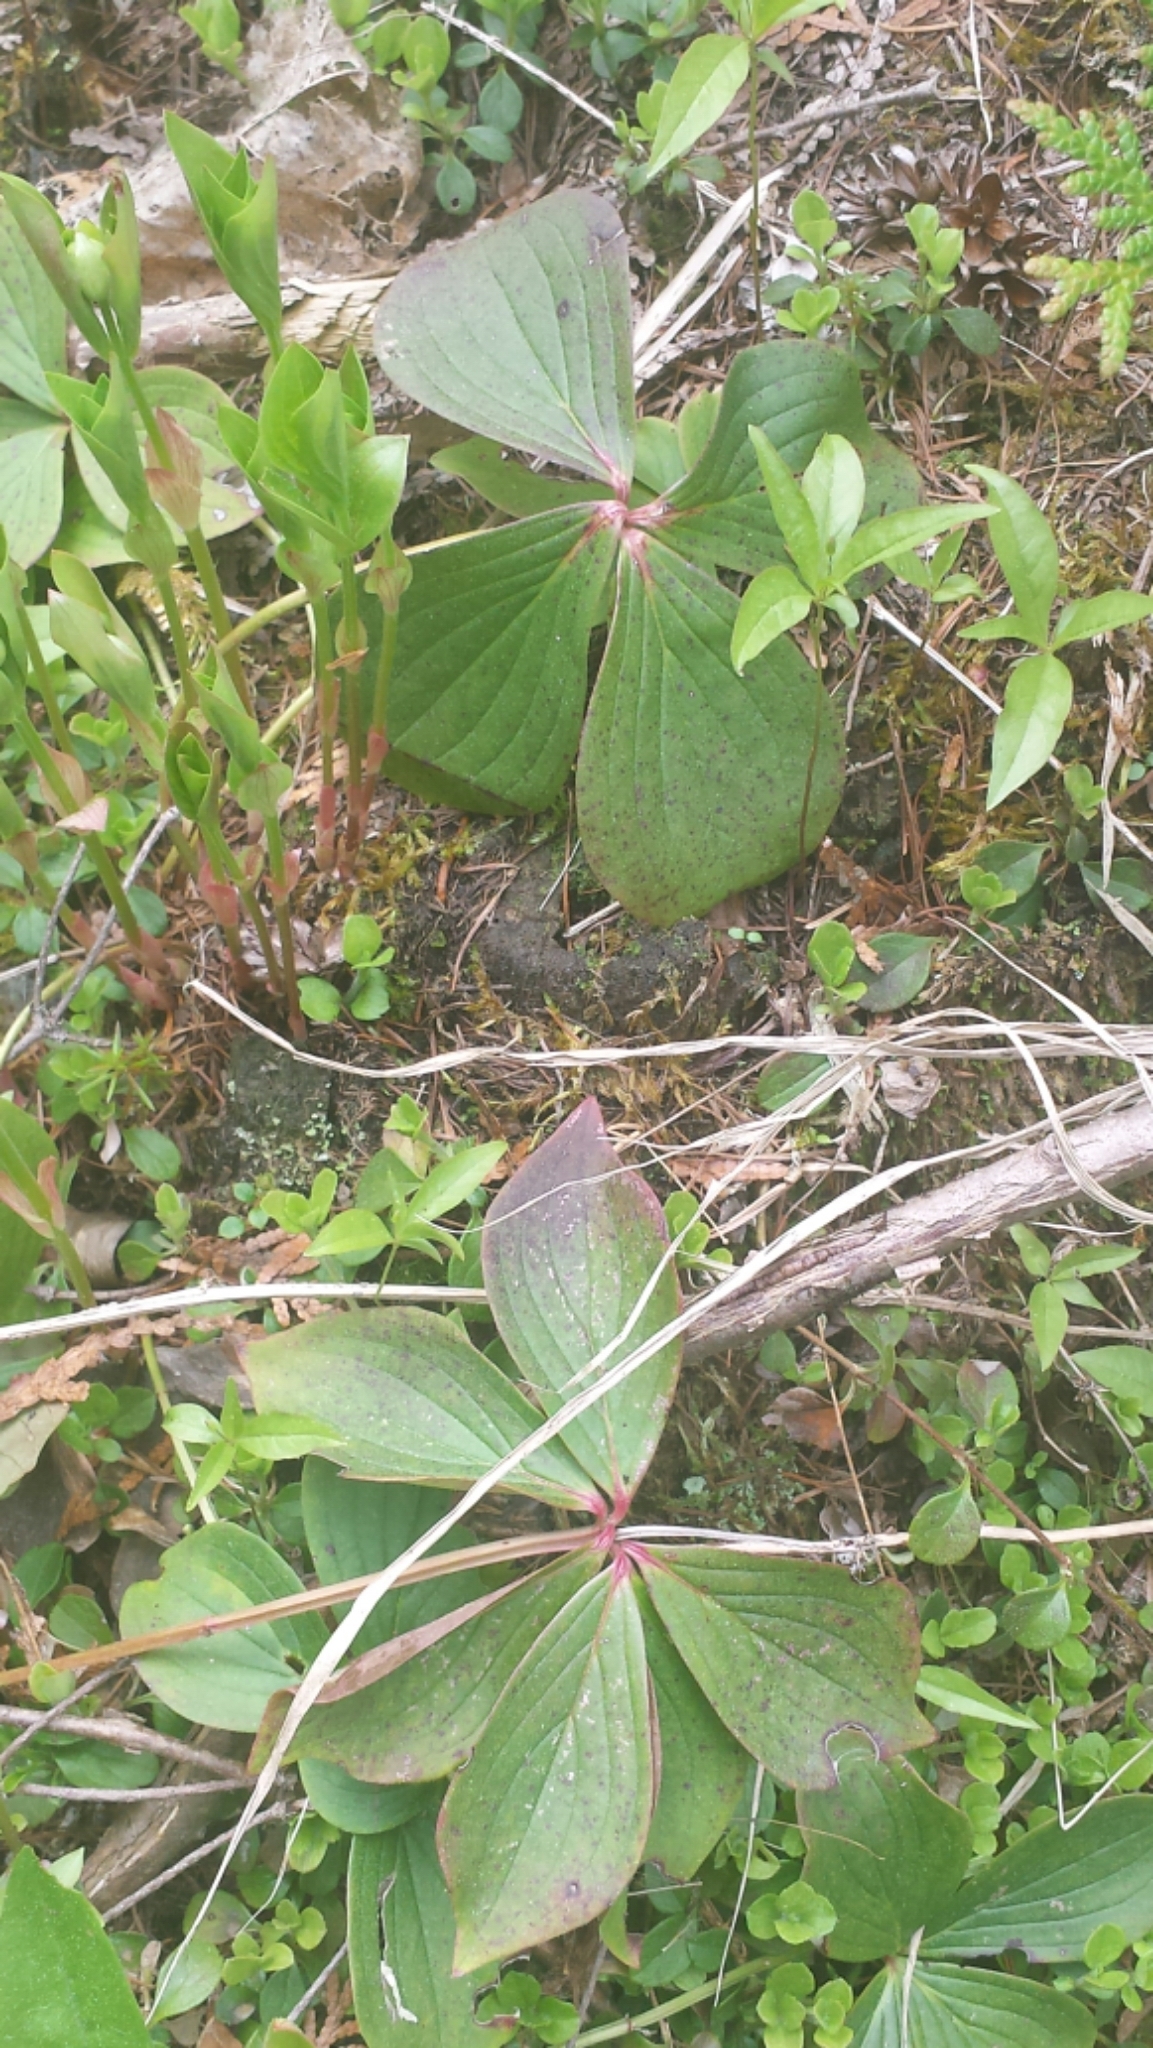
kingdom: Plantae
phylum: Tracheophyta
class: Magnoliopsida
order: Cornales
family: Cornaceae
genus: Cornus
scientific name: Cornus canadensis
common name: Creeping dogwood
